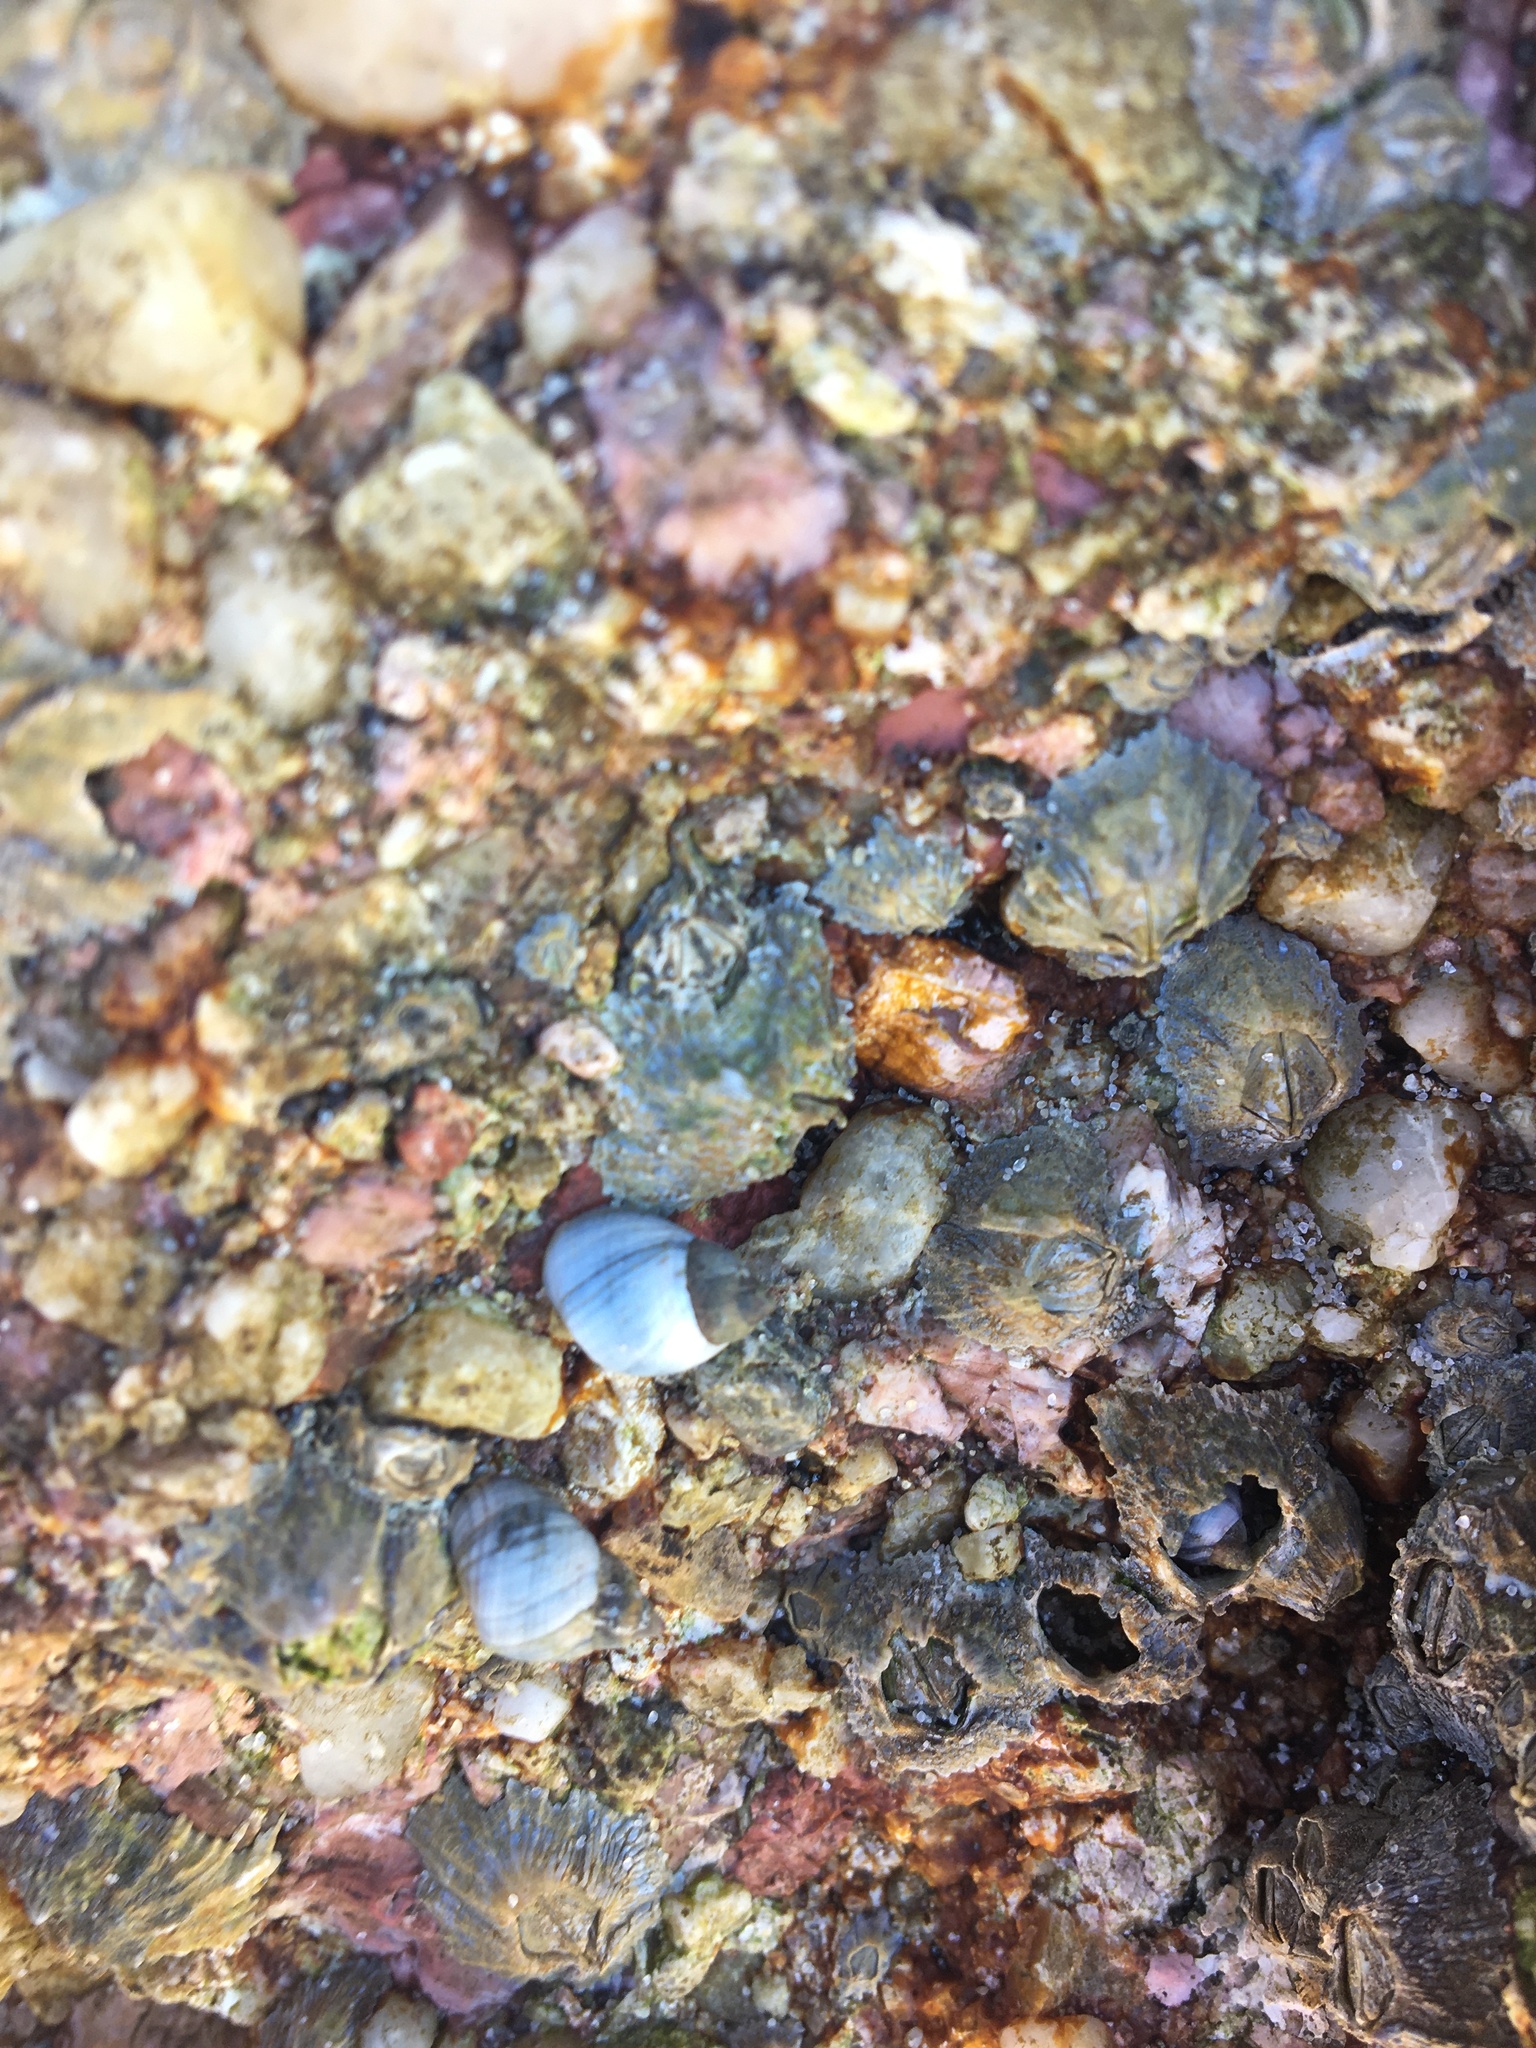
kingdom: Animalia
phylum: Mollusca
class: Gastropoda
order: Littorinimorpha
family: Littorinidae
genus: Austrolittorina
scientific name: Austrolittorina unifasciata
